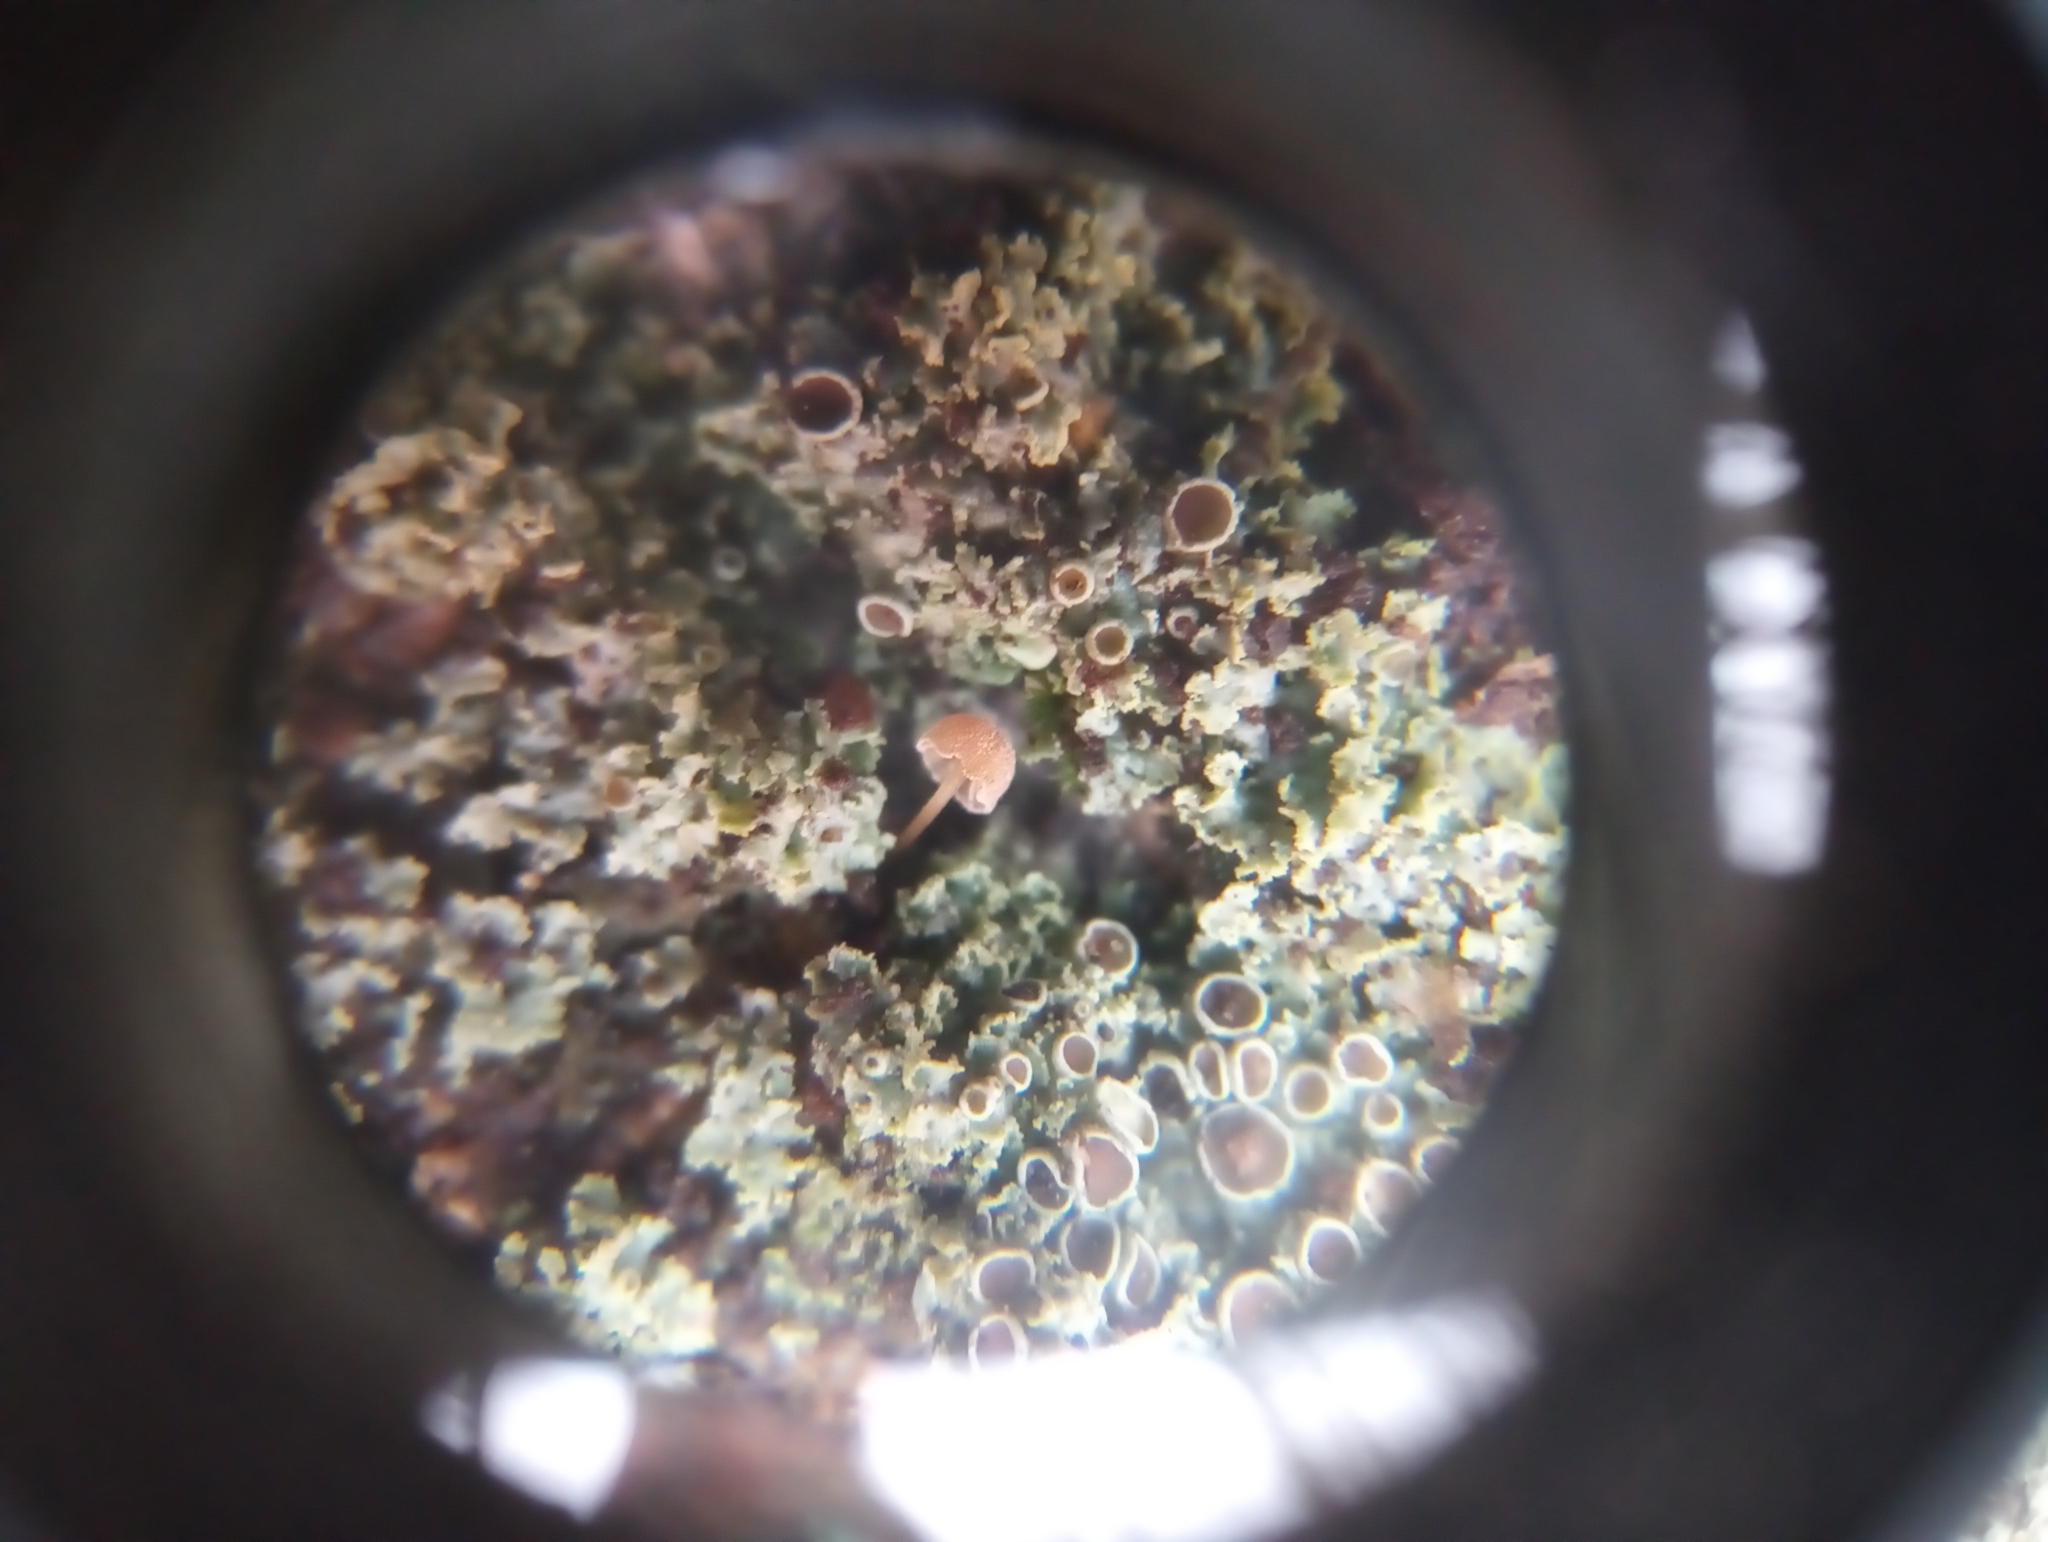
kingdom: Fungi
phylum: Basidiomycota
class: Agaricomycetes
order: Agaricales
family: Mycenaceae
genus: Mycena
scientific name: Mycena meliigena
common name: Mauve bonnet
